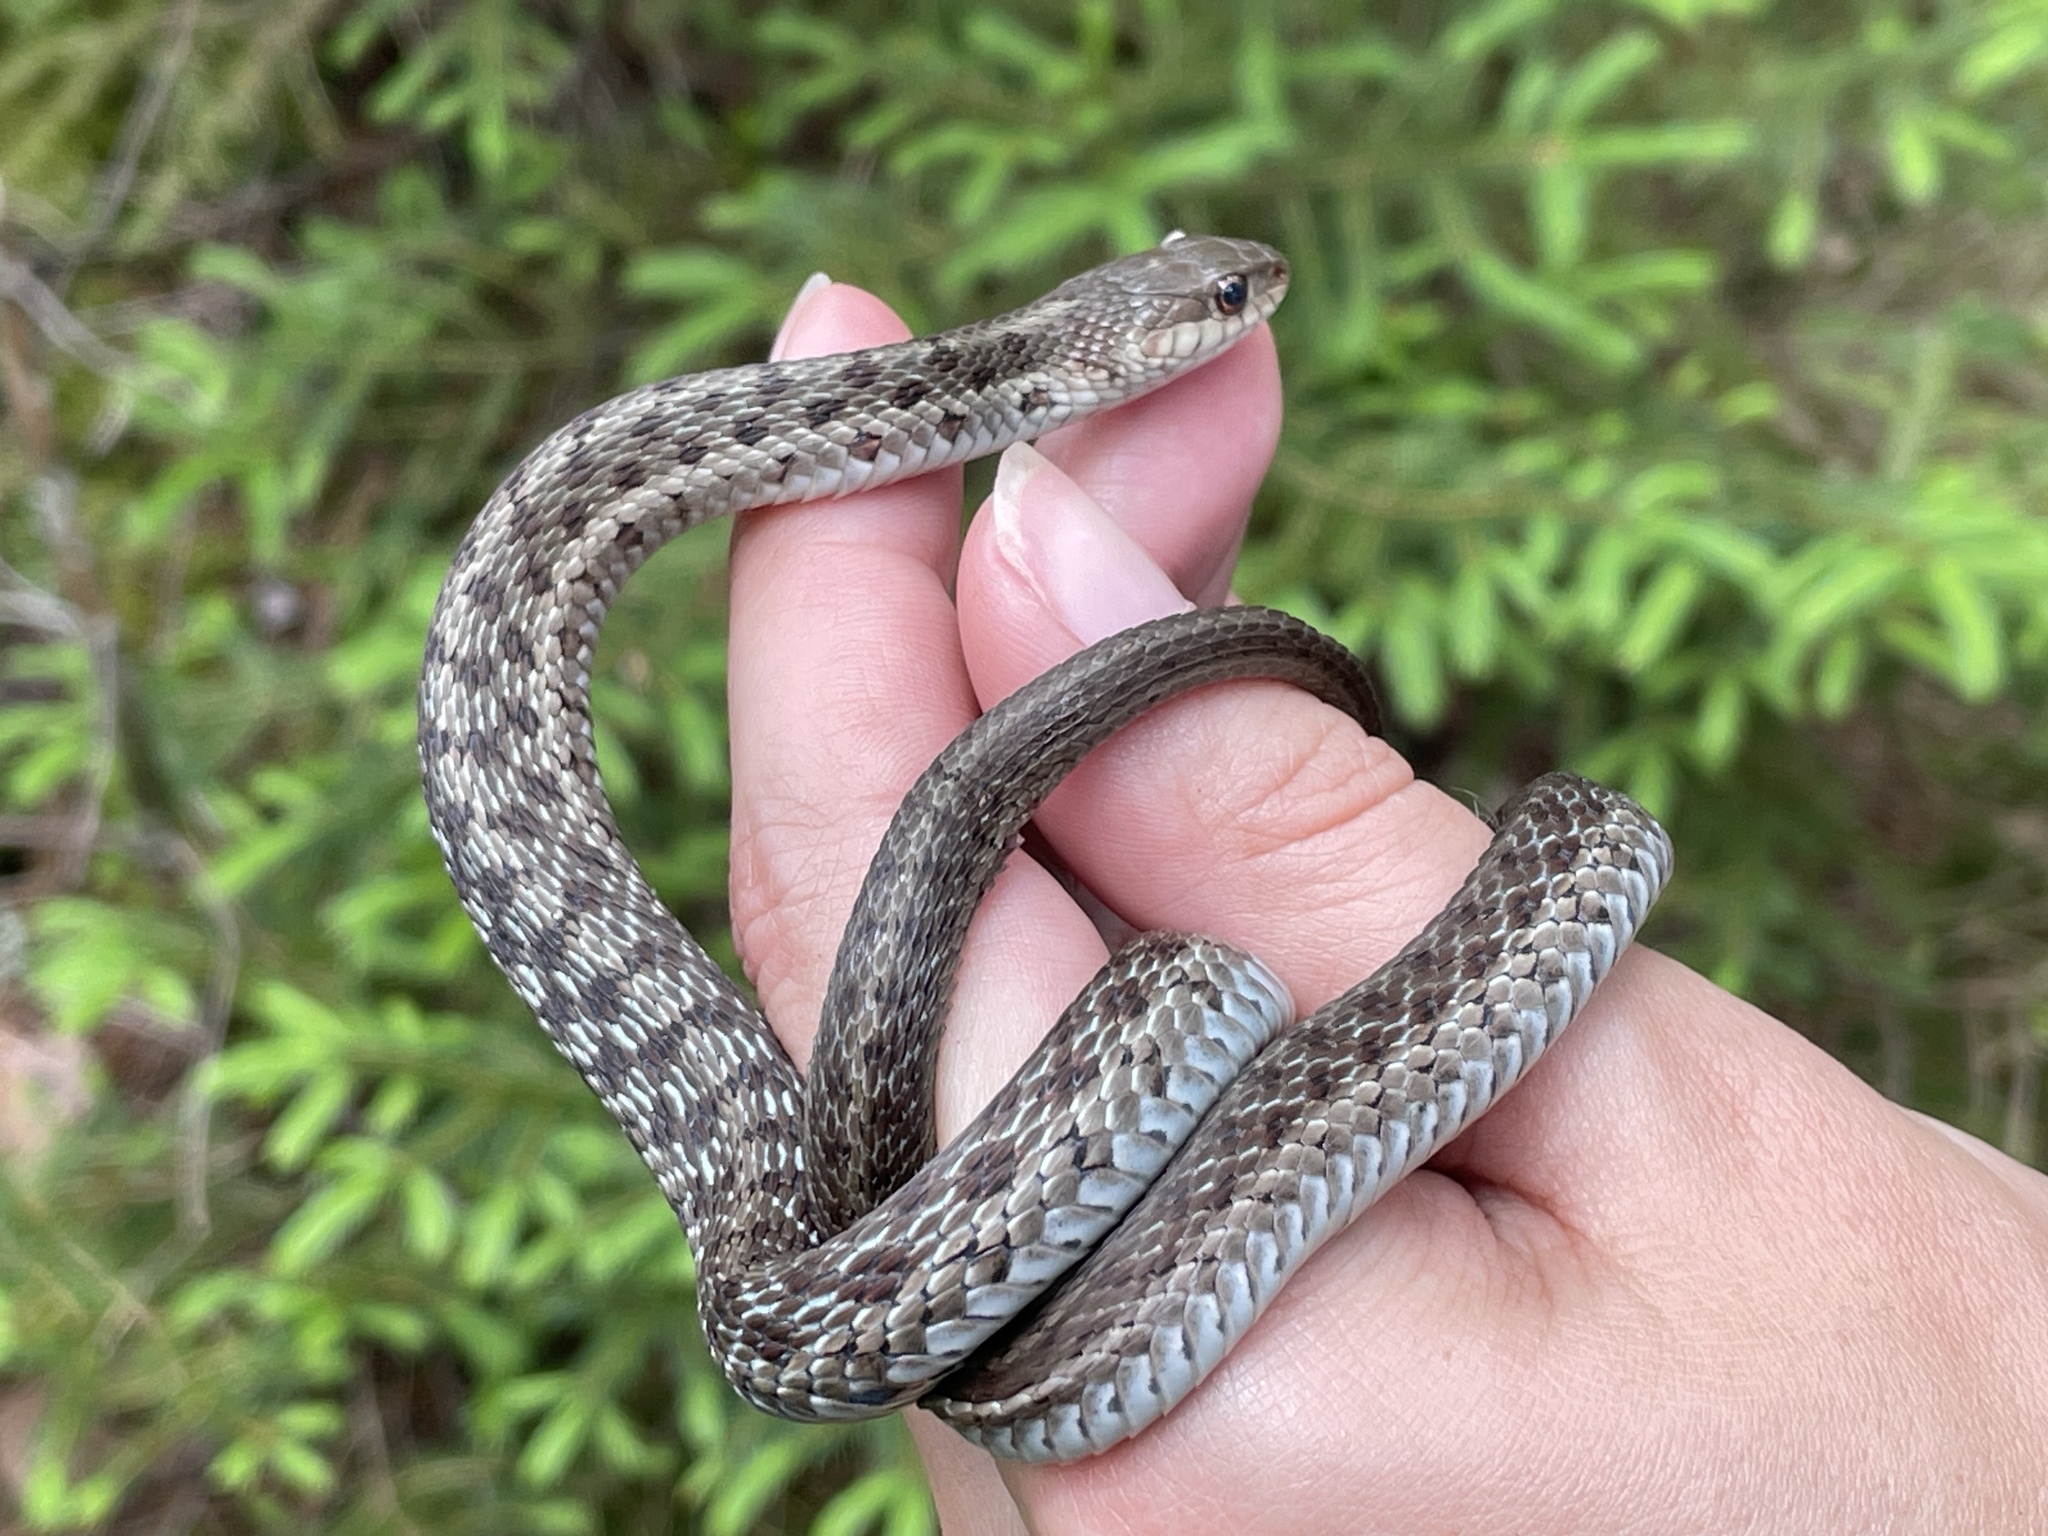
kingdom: Animalia
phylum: Chordata
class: Squamata
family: Colubridae
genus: Thamnophis
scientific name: Thamnophis sirtalis
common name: Common garter snake
